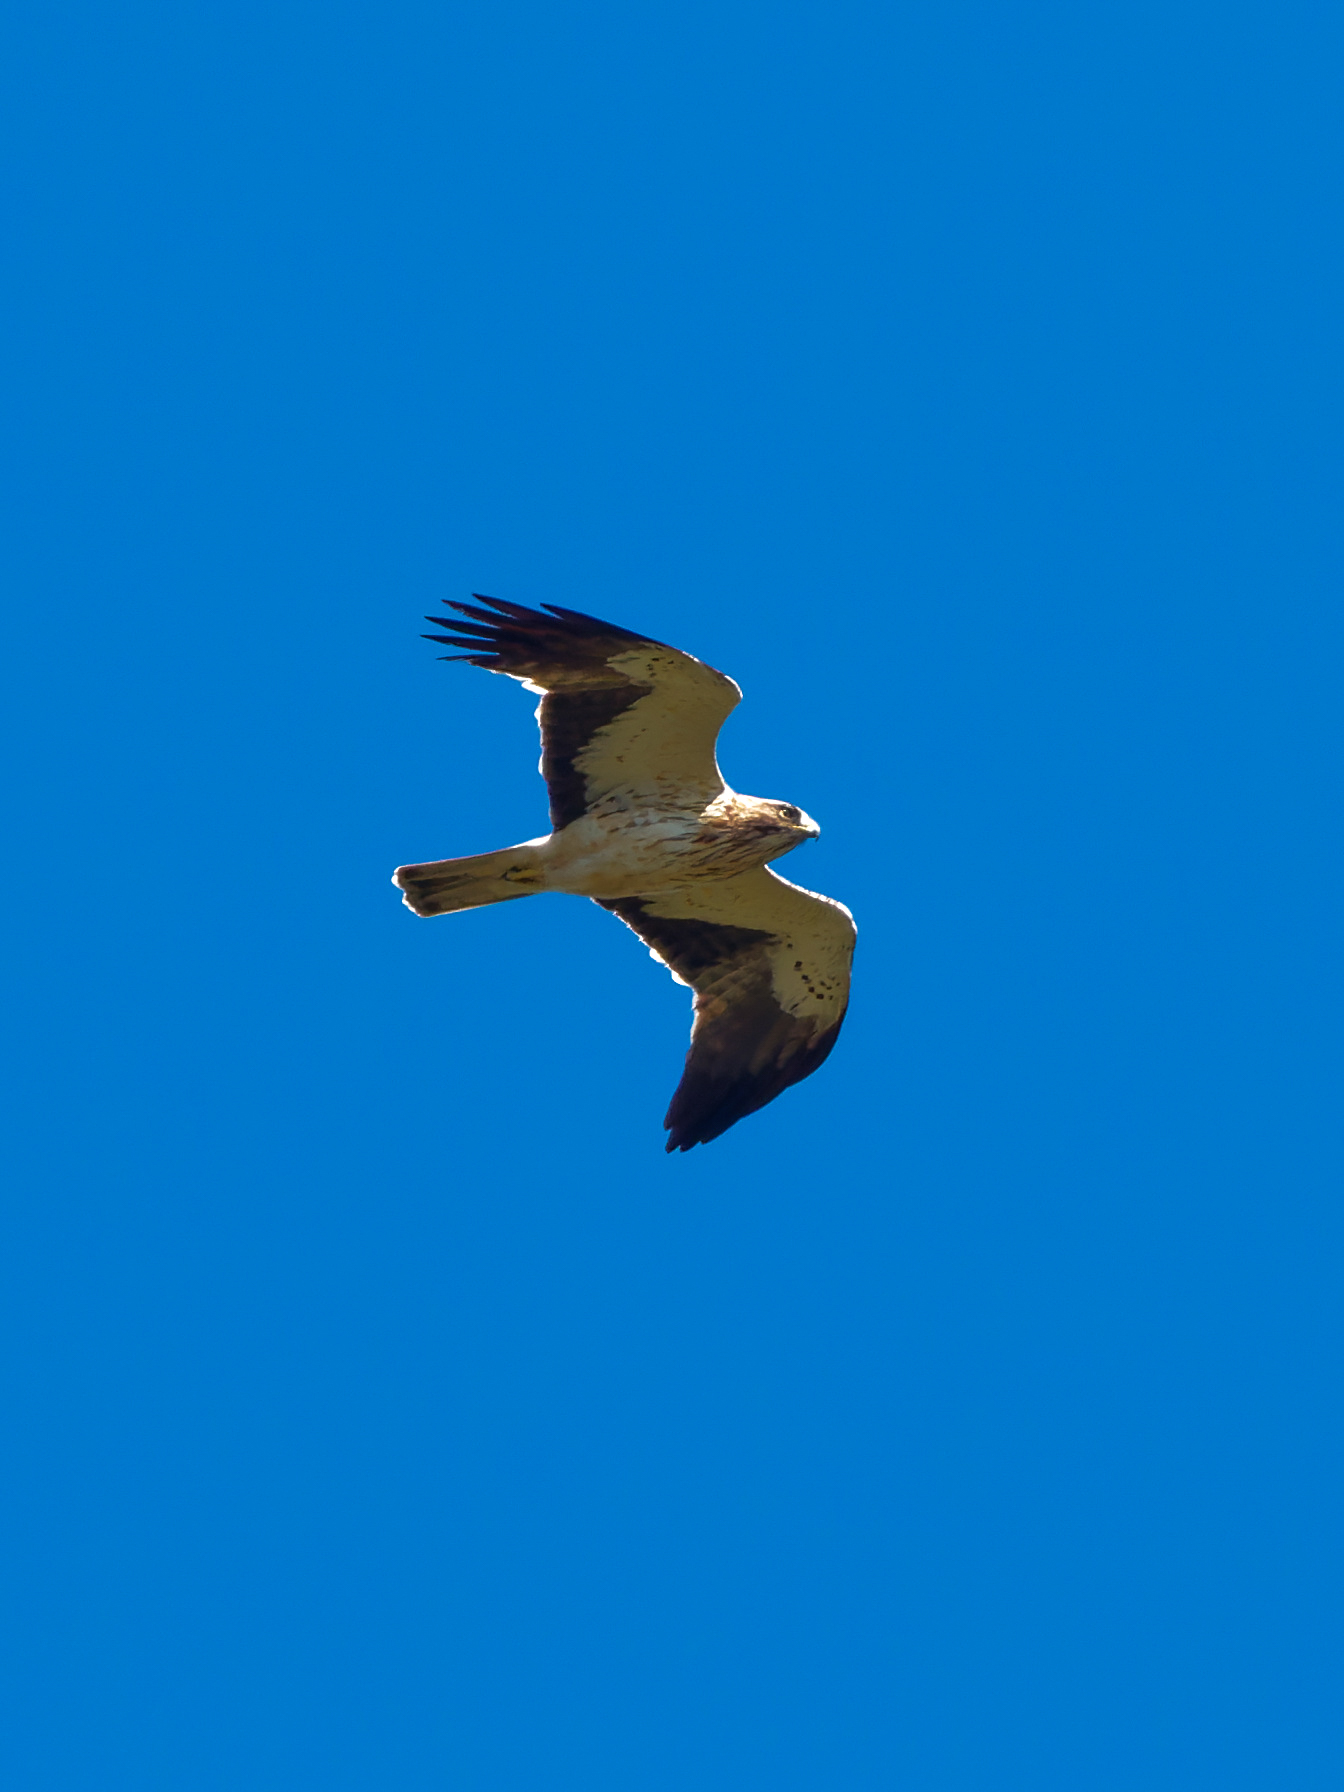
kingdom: Animalia
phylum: Chordata
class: Aves
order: Accipitriformes
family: Accipitridae
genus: Hieraaetus
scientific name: Hieraaetus pennatus
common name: Booted eagle
